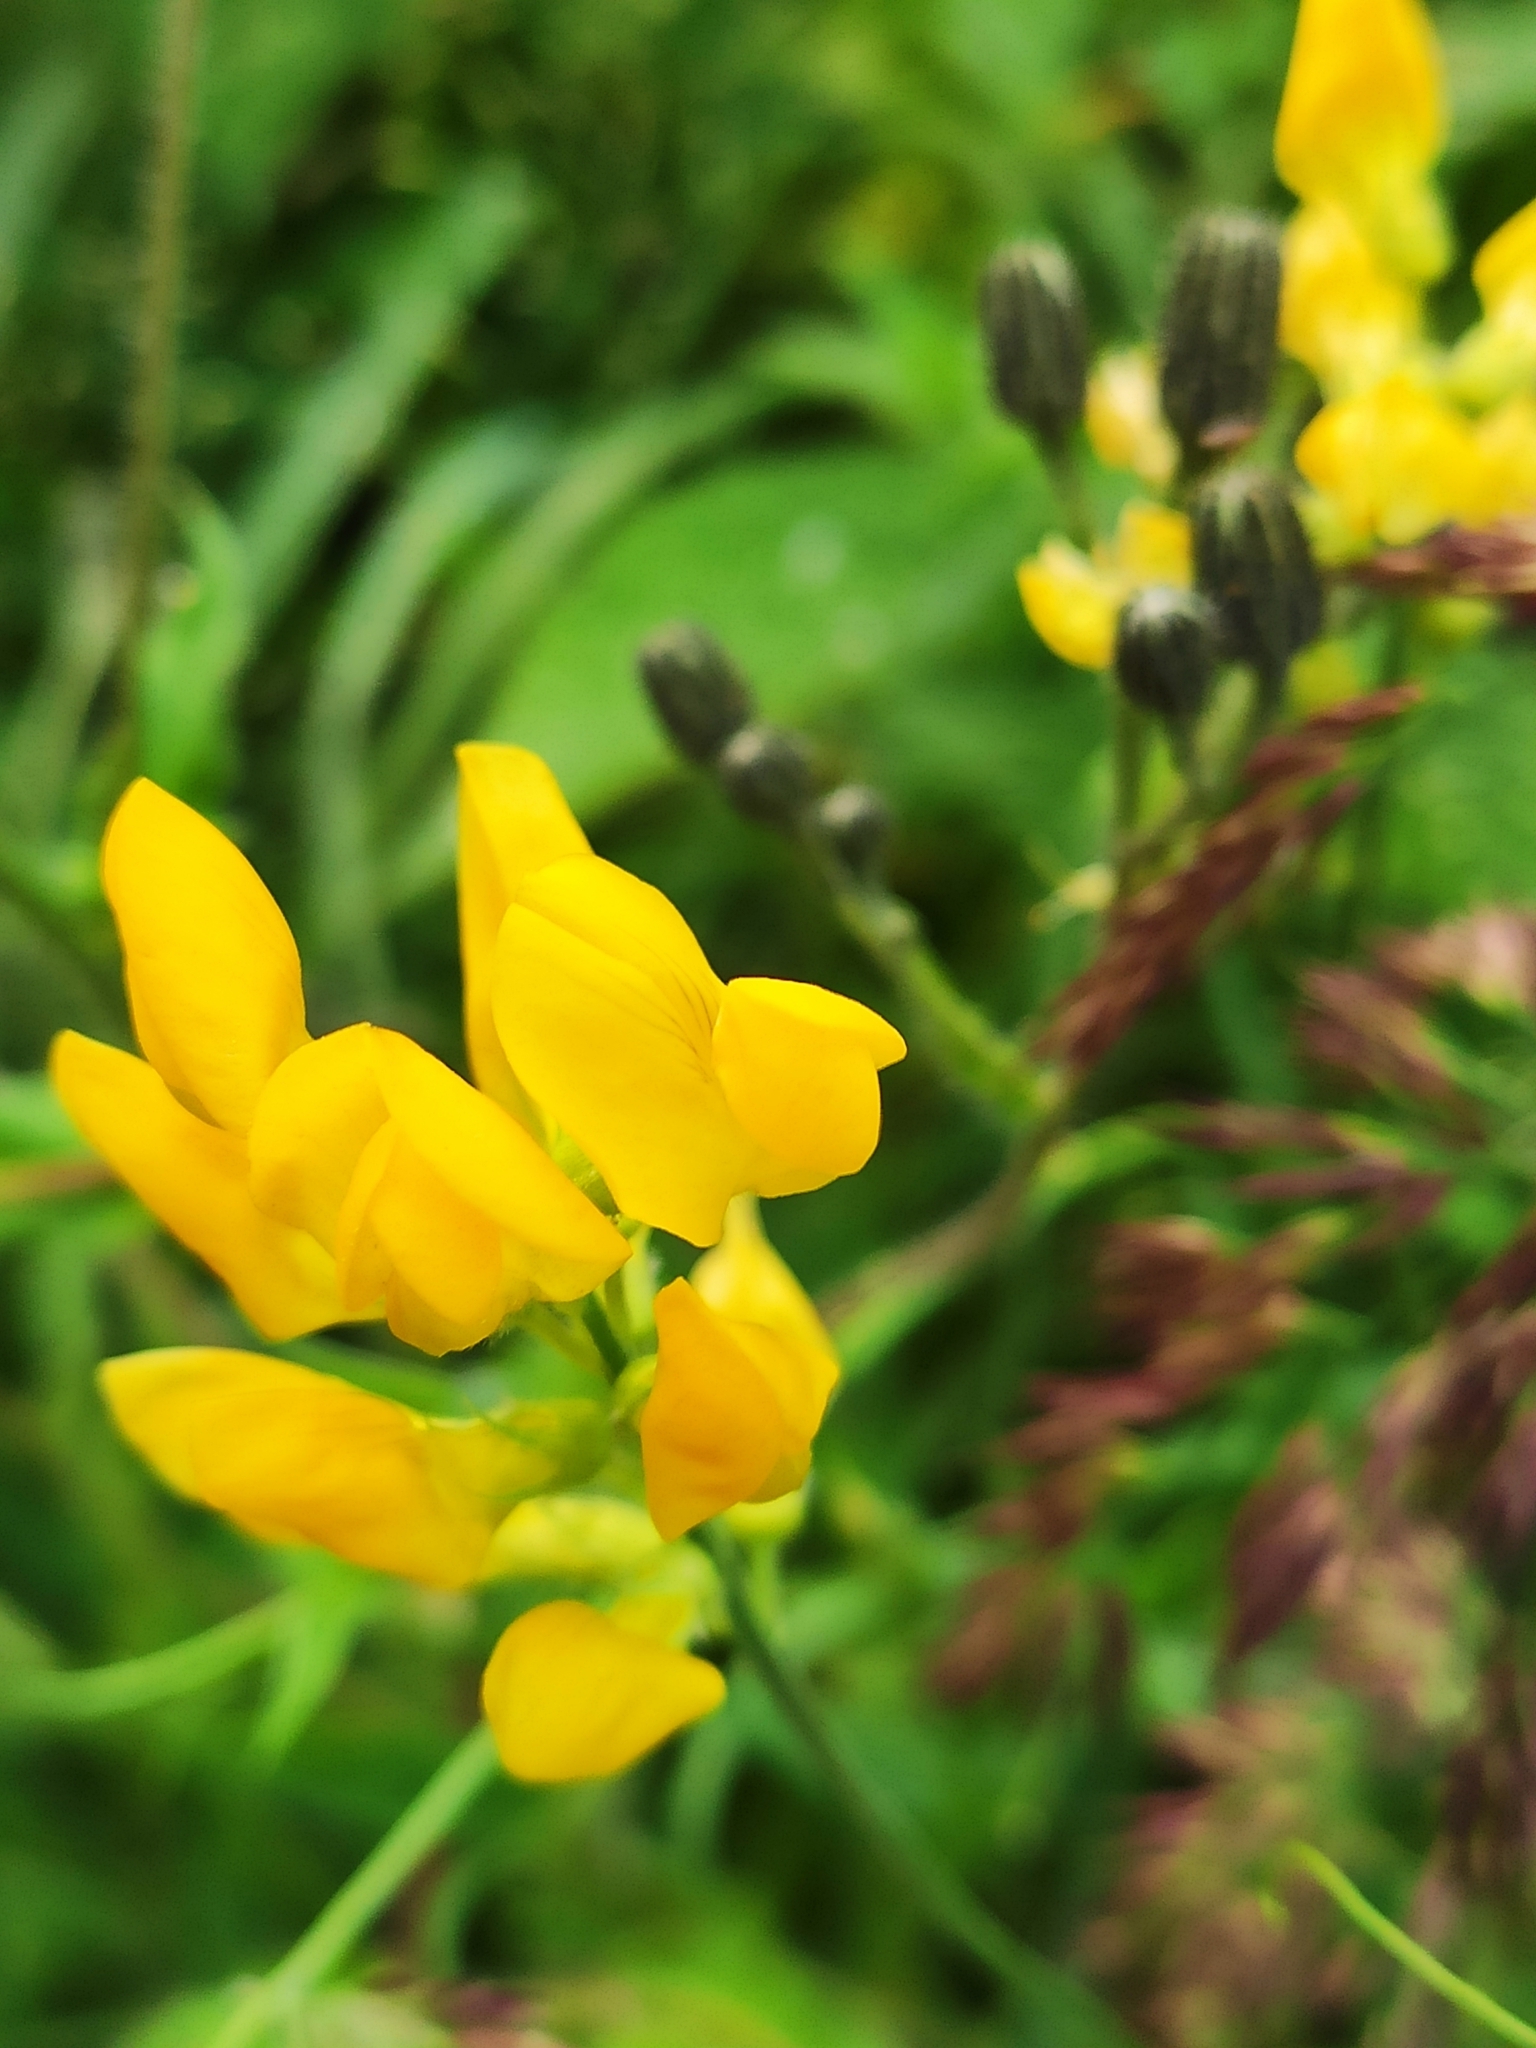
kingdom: Plantae
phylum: Tracheophyta
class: Magnoliopsida
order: Fabales
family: Fabaceae
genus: Lathyrus
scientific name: Lathyrus pratensis
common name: Meadow vetchling
